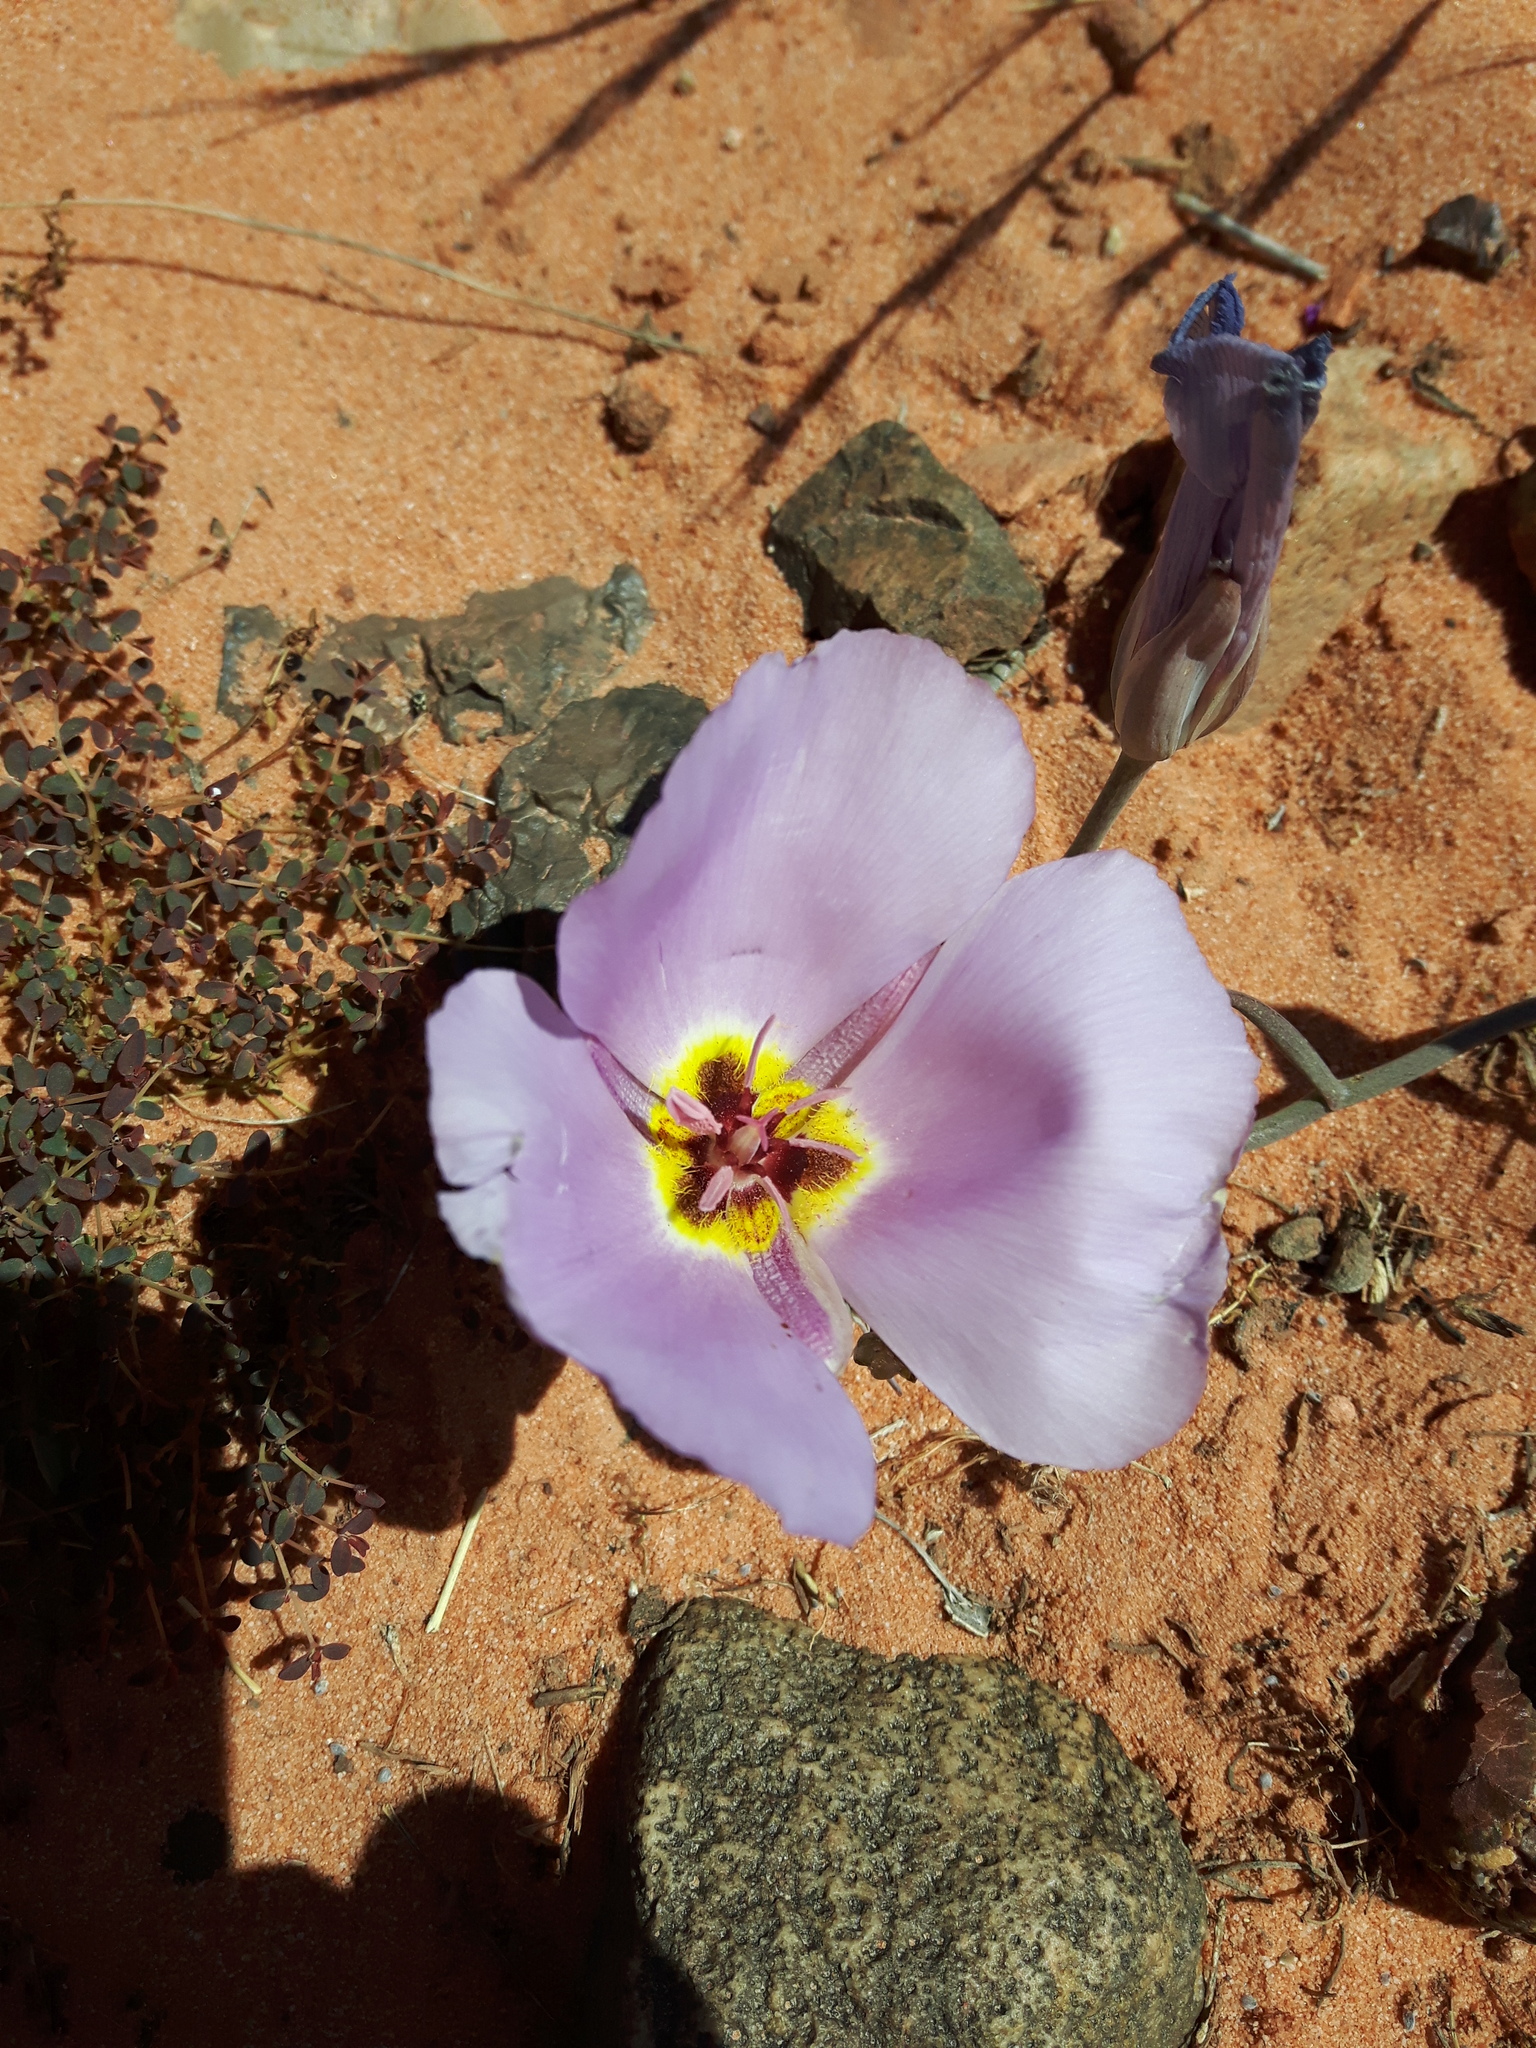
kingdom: Plantae
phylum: Tracheophyta
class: Liliopsida
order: Liliales
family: Liliaceae
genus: Calochortus
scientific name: Calochortus flexuosus
